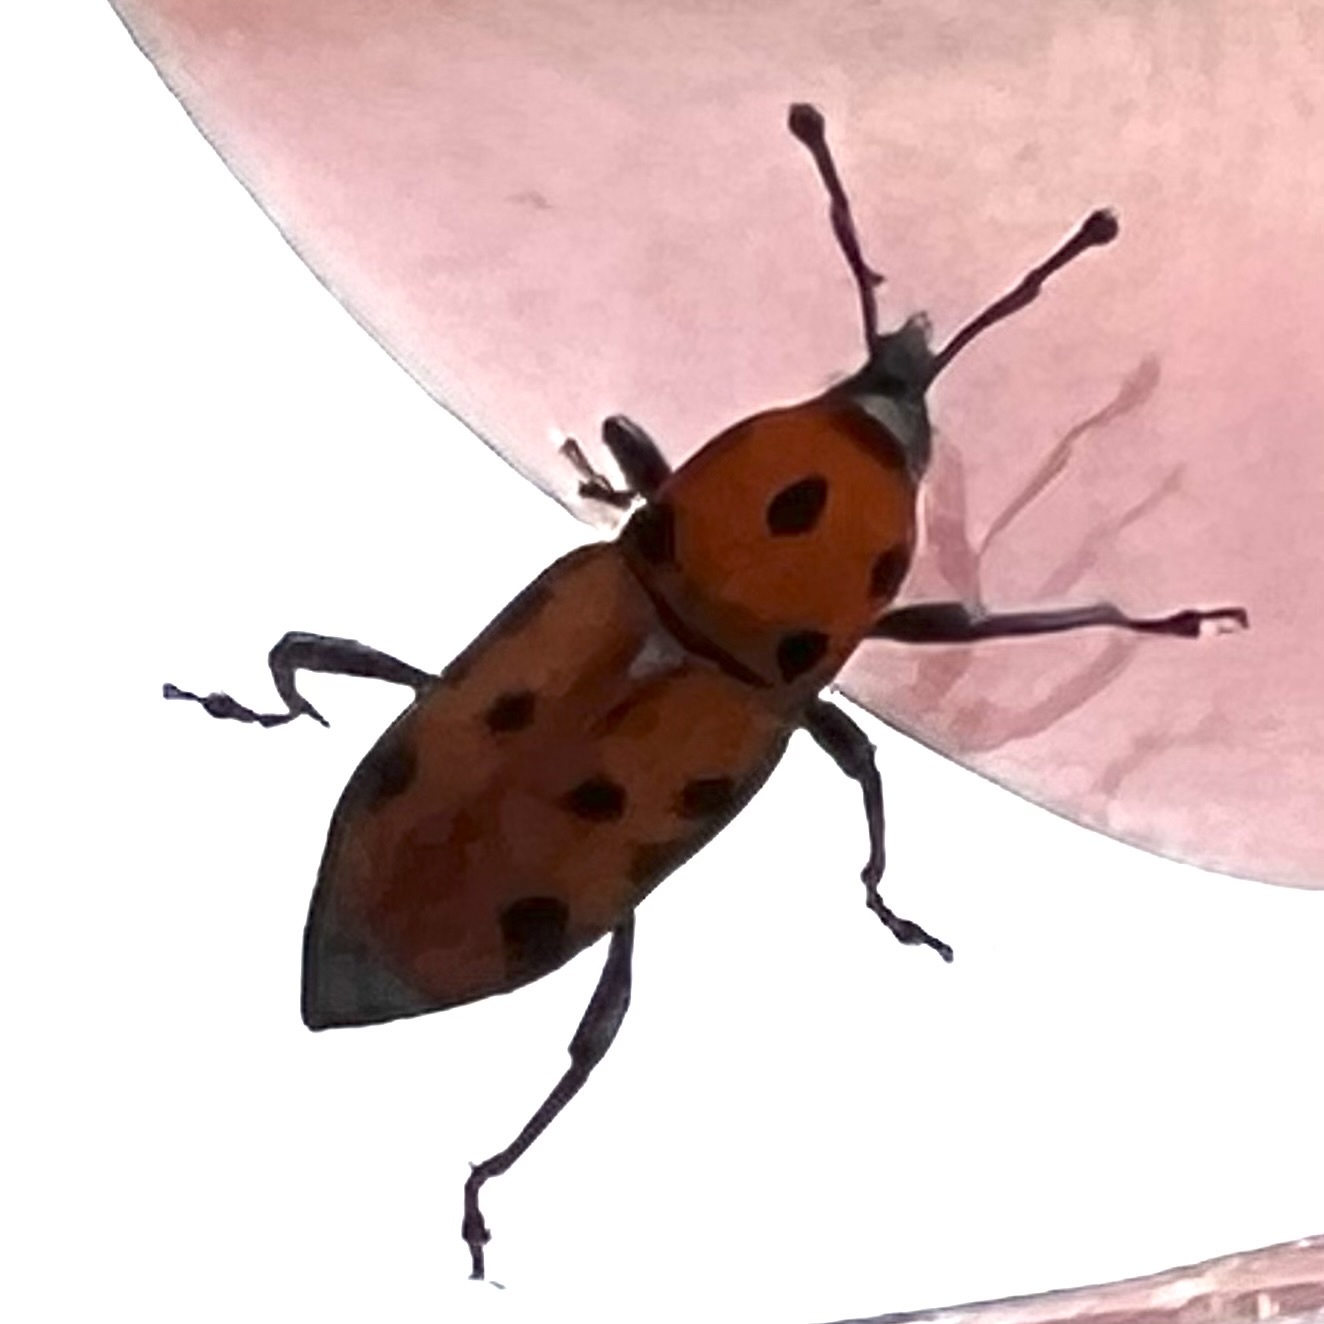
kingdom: Animalia
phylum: Arthropoda
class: Insecta
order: Coleoptera
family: Dryophthoridae
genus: Rhodobaenus
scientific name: Rhodobaenus tredecimpunctatus
